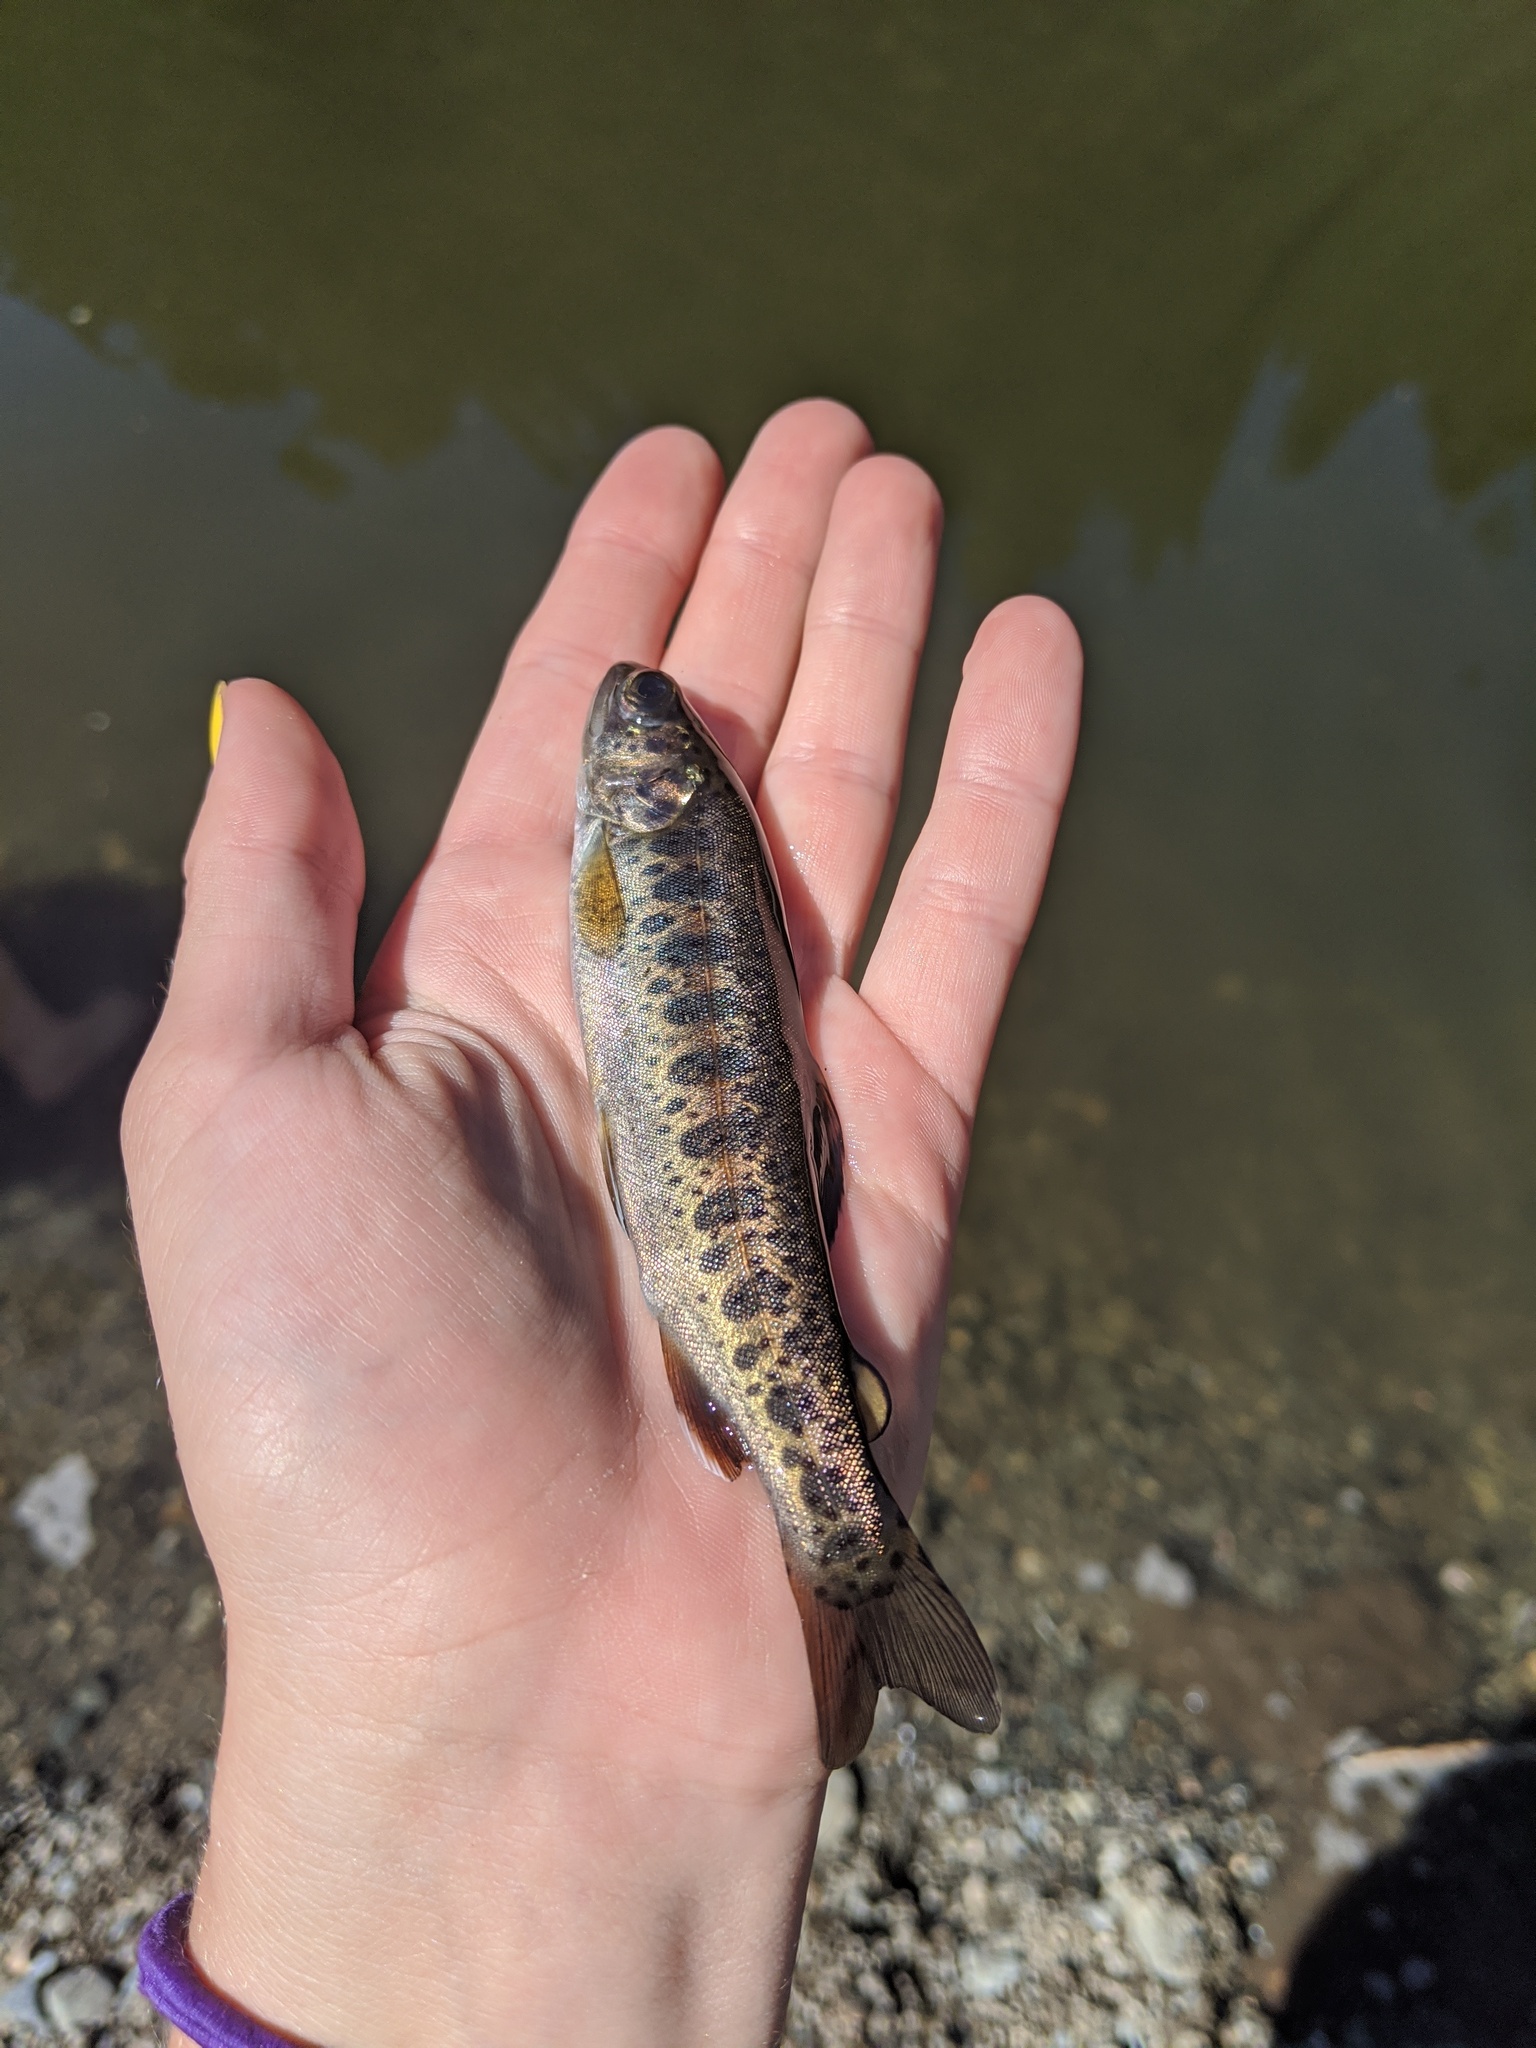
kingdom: Animalia
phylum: Chordata
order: Salmoniformes
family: Salmonidae
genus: Oncorhynchus
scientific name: Oncorhynchus mykiss
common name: Rainbow trout
